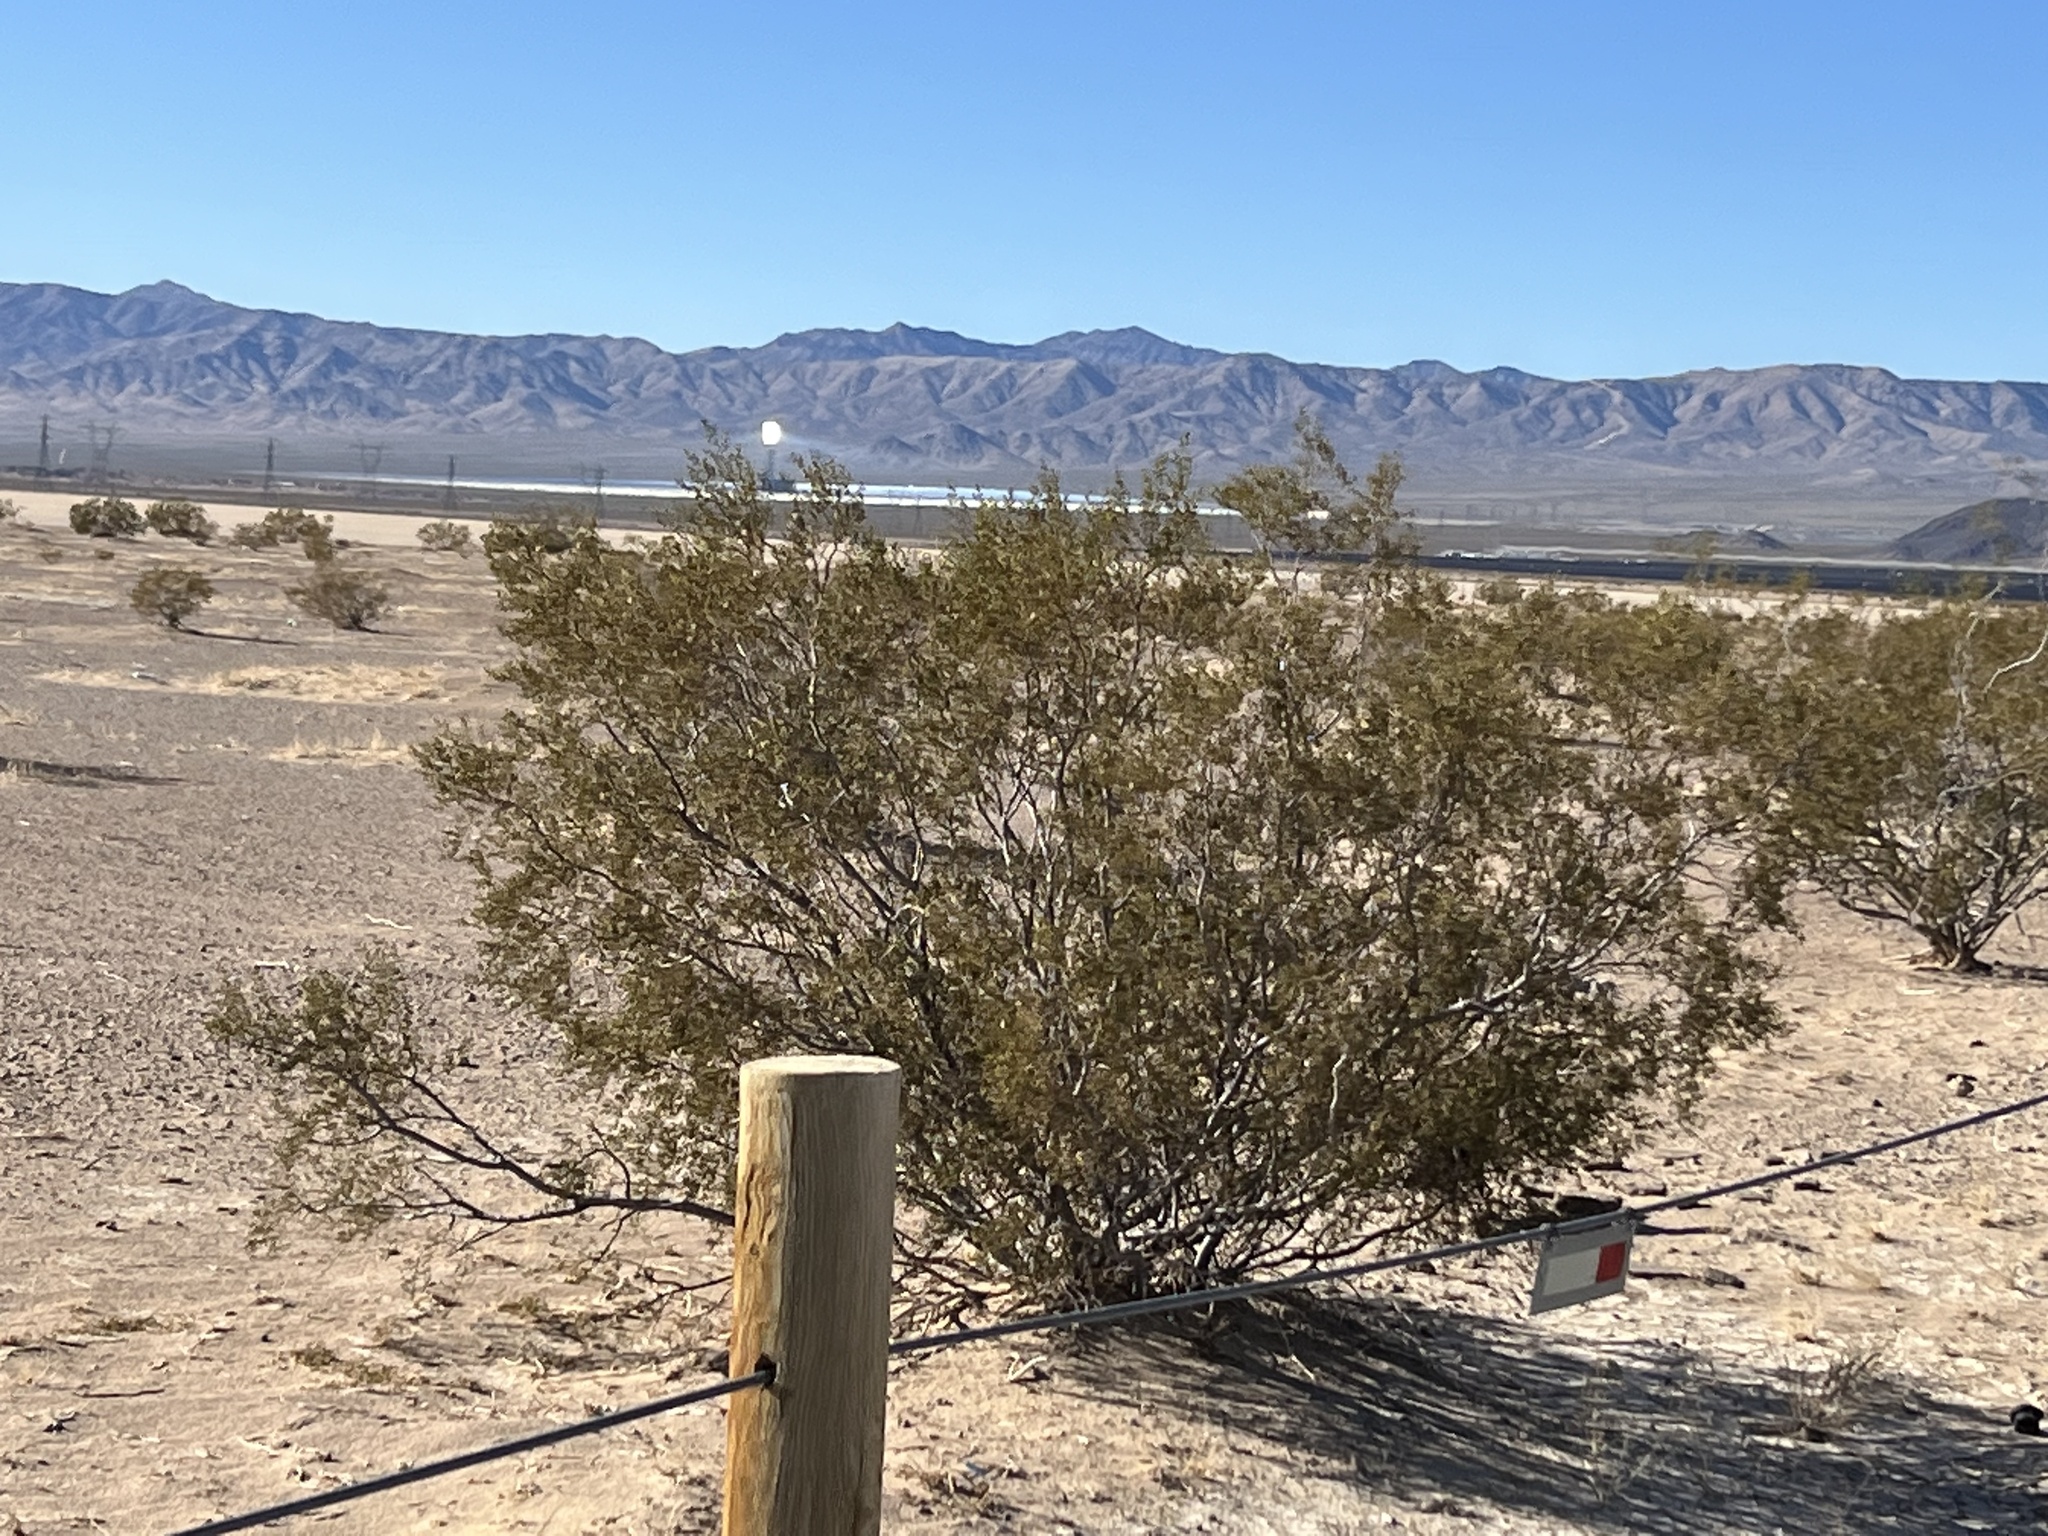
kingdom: Plantae
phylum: Tracheophyta
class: Magnoliopsida
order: Zygophyllales
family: Zygophyllaceae
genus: Larrea
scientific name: Larrea tridentata
